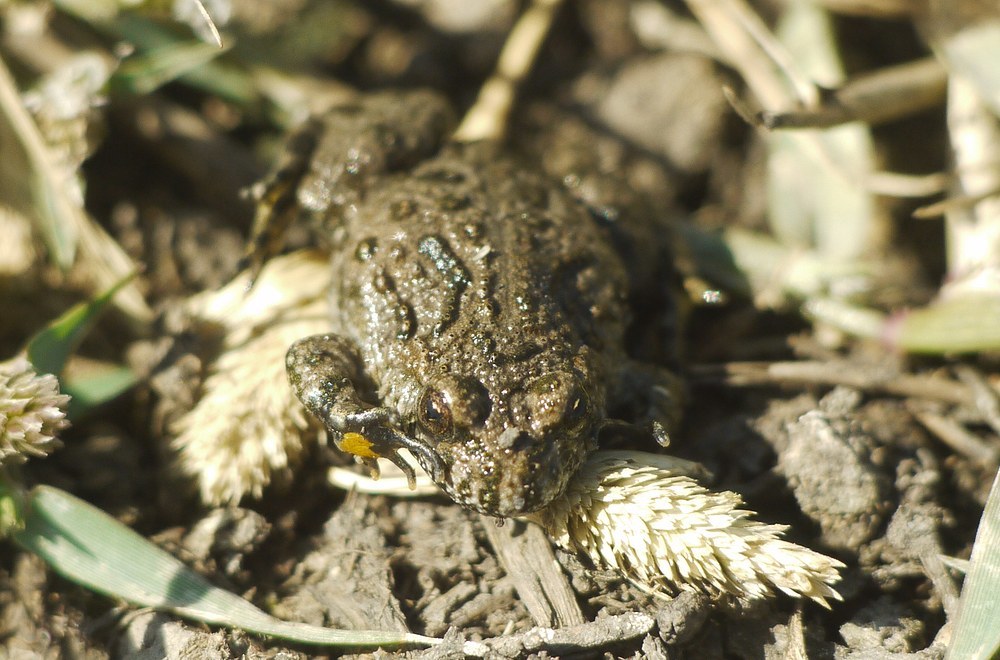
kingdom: Animalia
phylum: Chordata
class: Amphibia
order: Anura
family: Bombinatoridae
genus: Bombina
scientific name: Bombina bombina
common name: Fire-bellied toad
